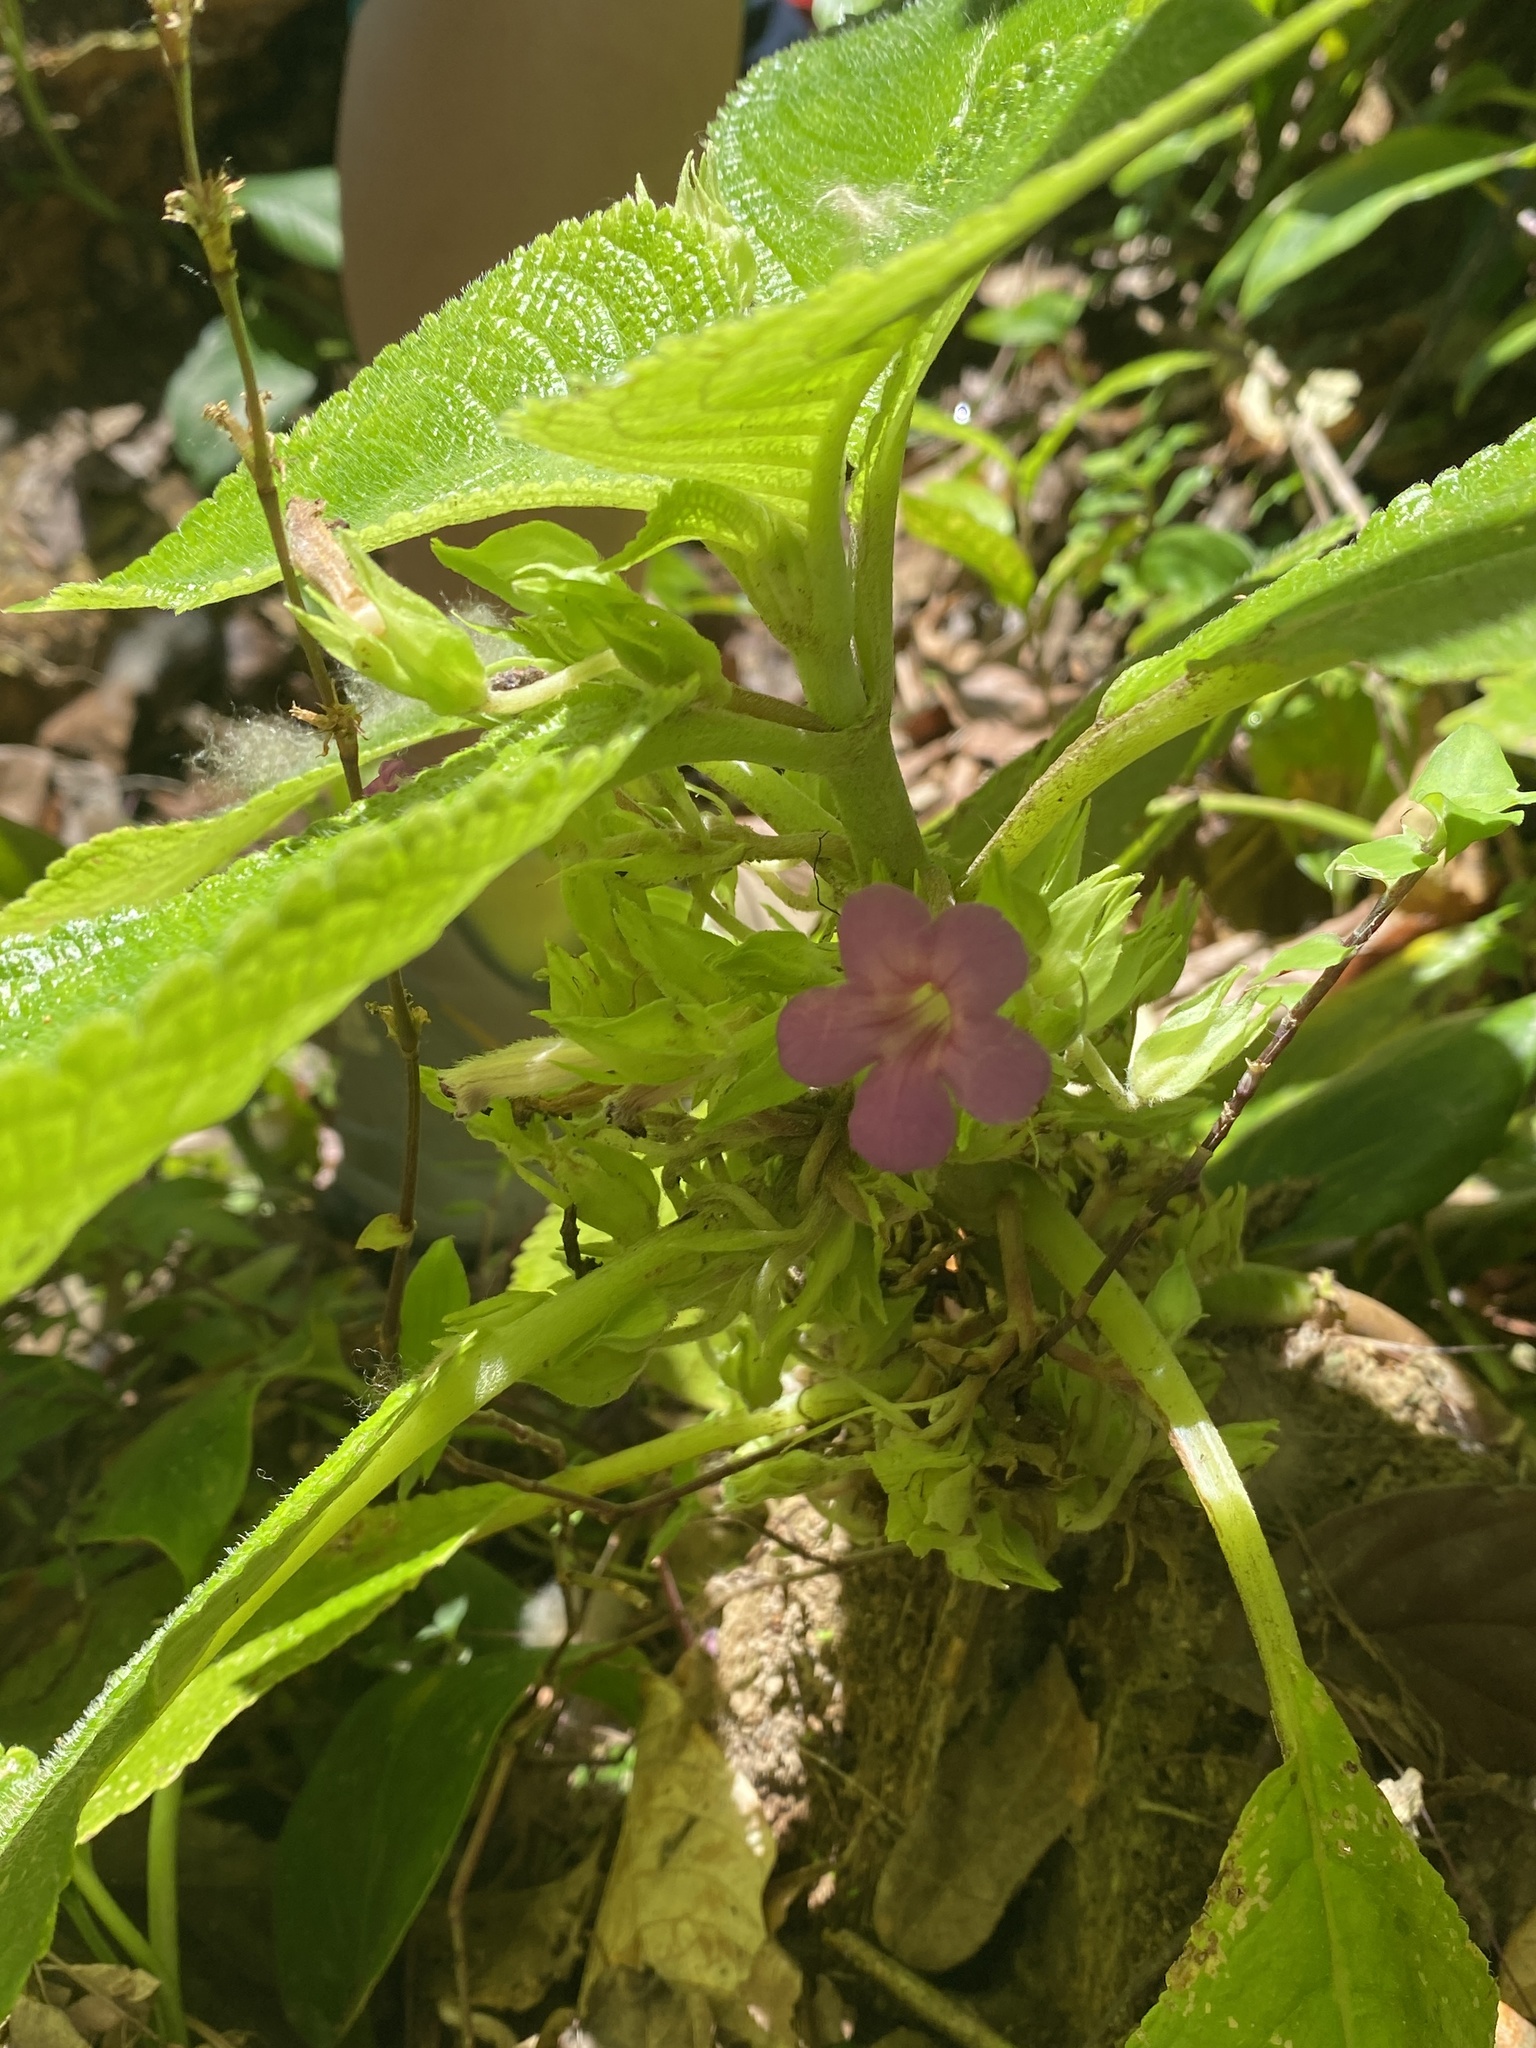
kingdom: Plantae
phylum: Tracheophyta
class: Magnoliopsida
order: Lamiales
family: Gesneriaceae
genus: Chrysothemis
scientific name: Chrysothemis melittifolia
